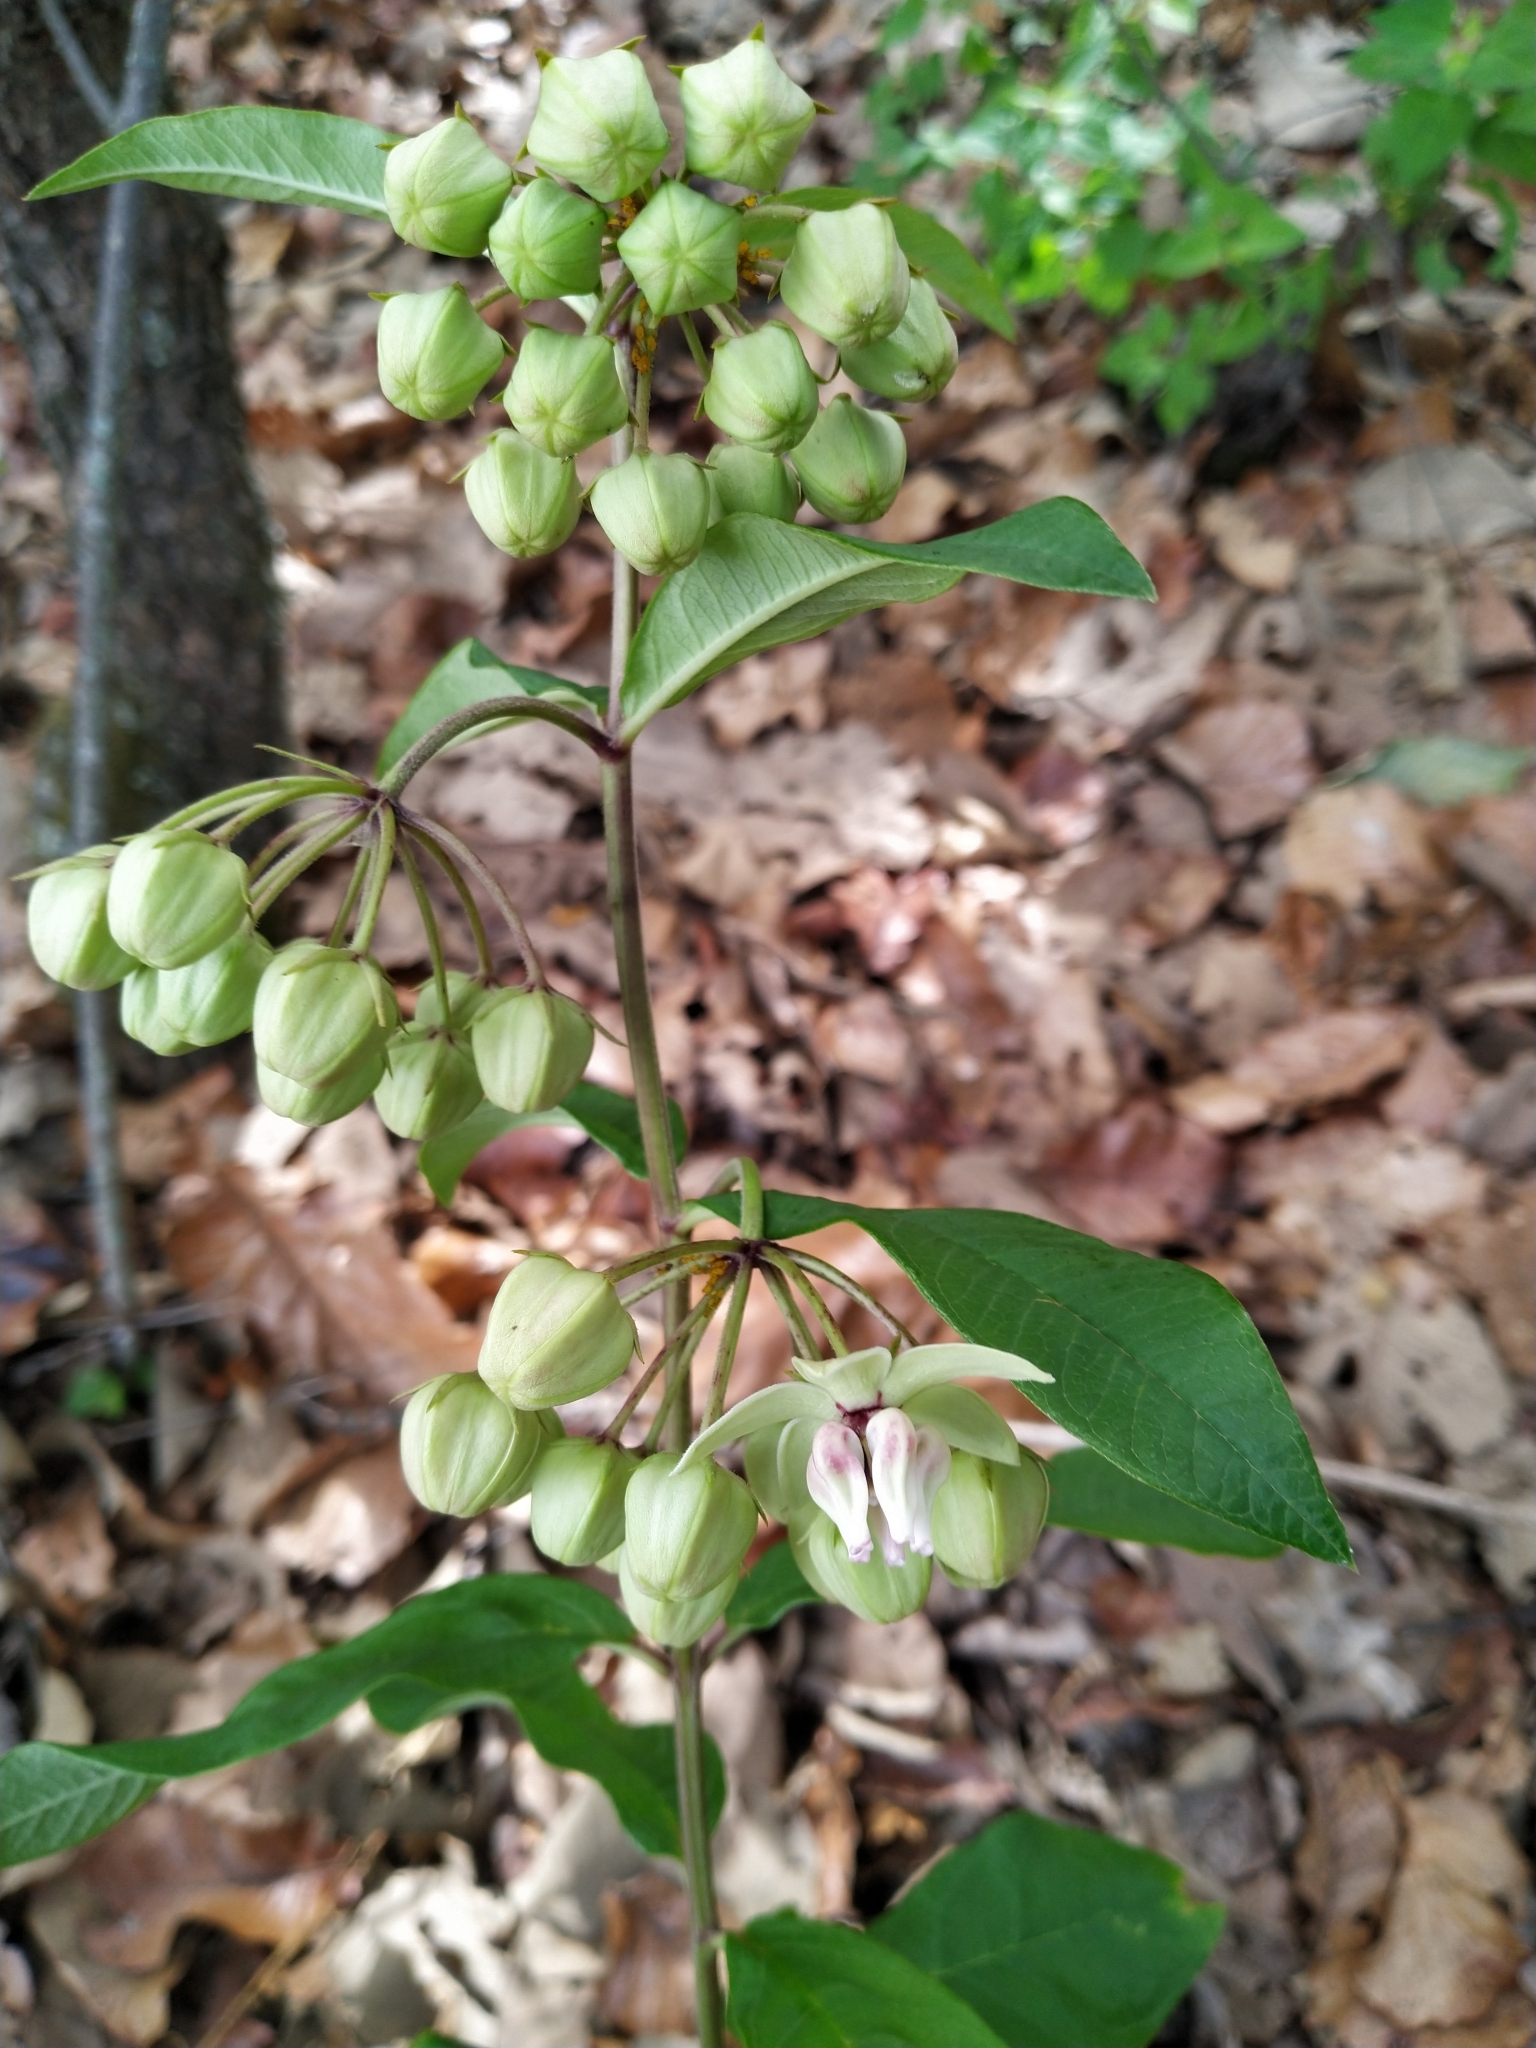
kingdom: Plantae
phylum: Tracheophyta
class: Magnoliopsida
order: Gentianales
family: Apocynaceae
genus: Asclepias
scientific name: Asclepias auriculata
